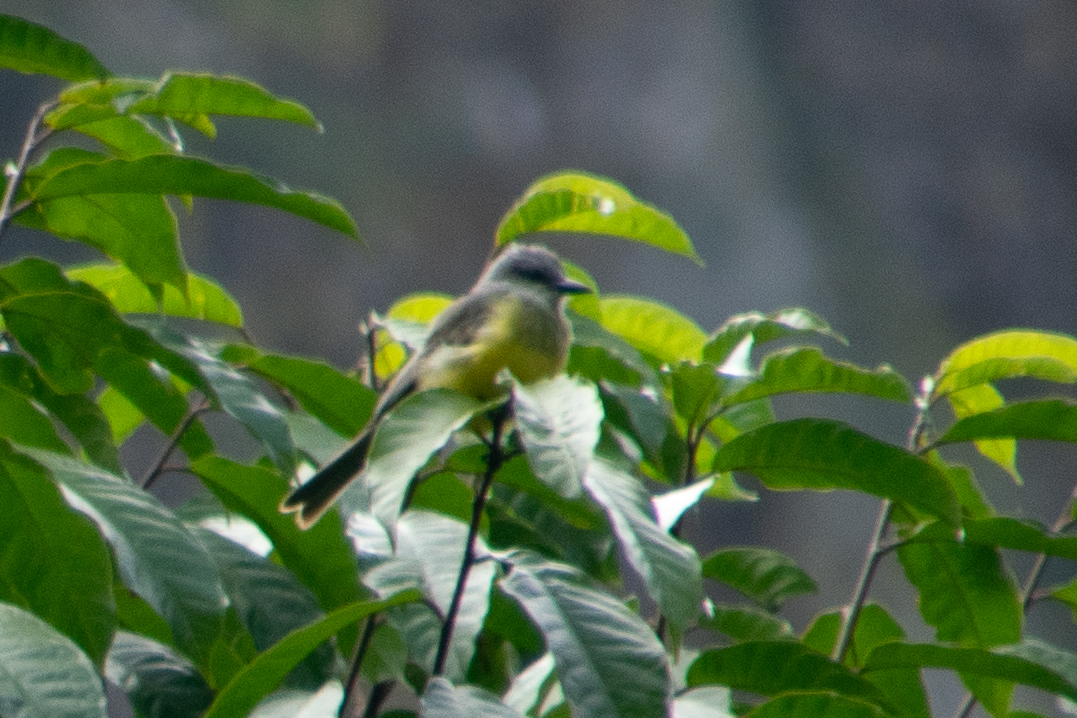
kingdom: Animalia
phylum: Chordata
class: Aves
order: Passeriformes
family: Tyrannidae
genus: Tyrannus
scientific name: Tyrannus melancholicus
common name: Tropical kingbird
